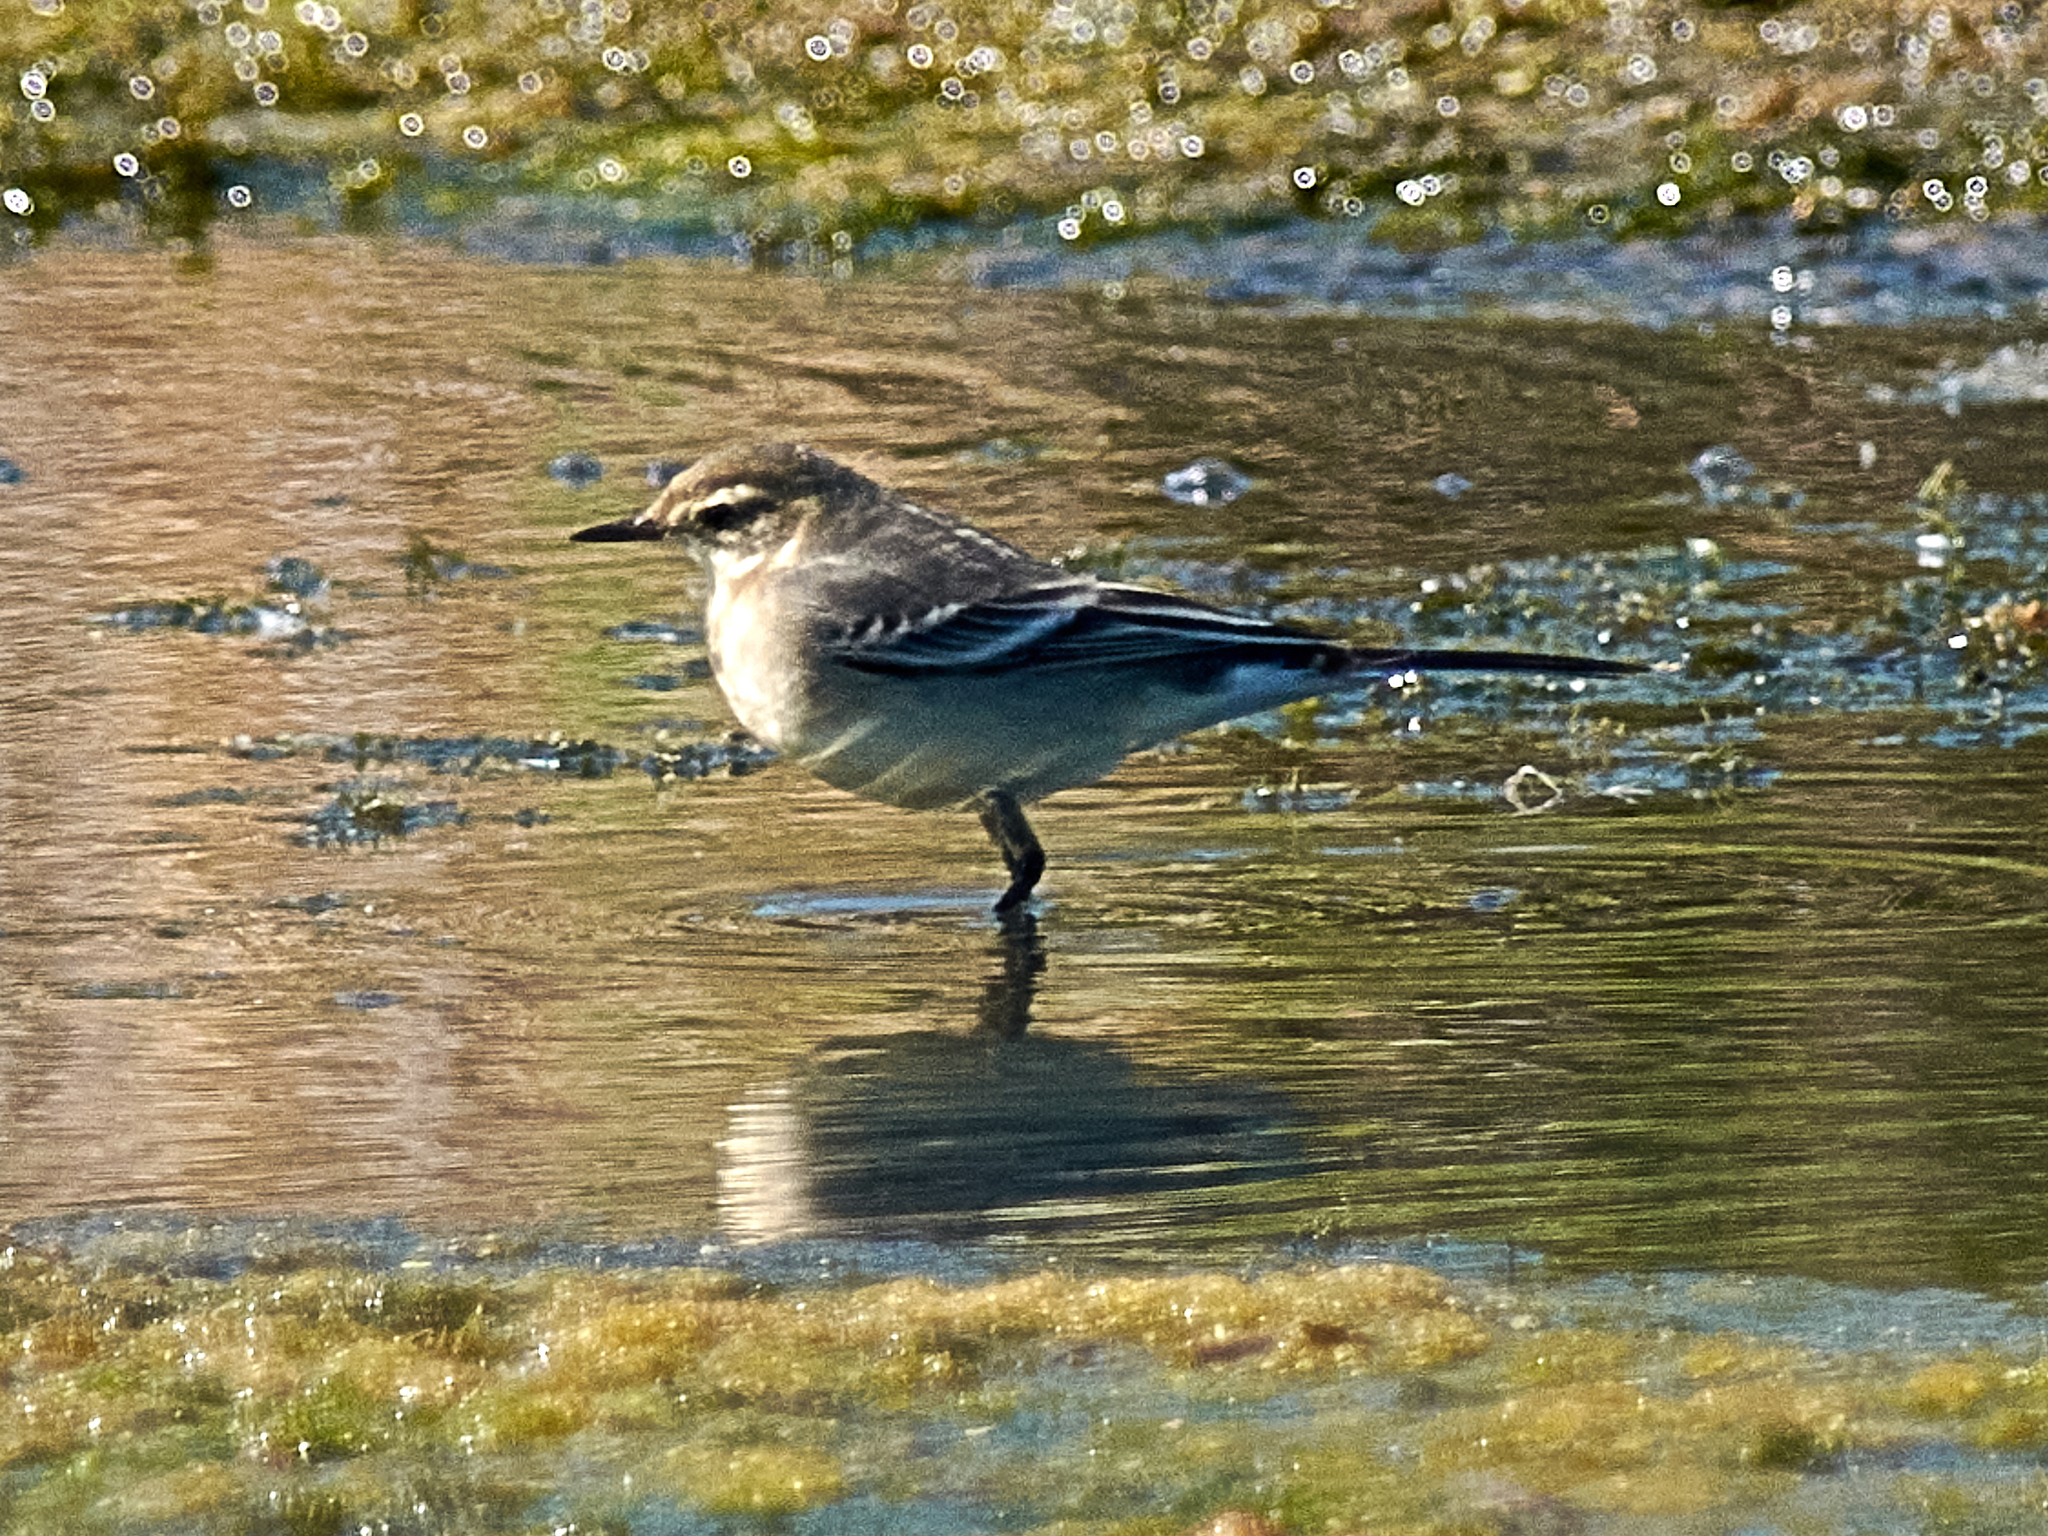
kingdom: Animalia
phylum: Chordata
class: Aves
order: Passeriformes
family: Motacillidae
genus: Motacilla
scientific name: Motacilla alba
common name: White wagtail
